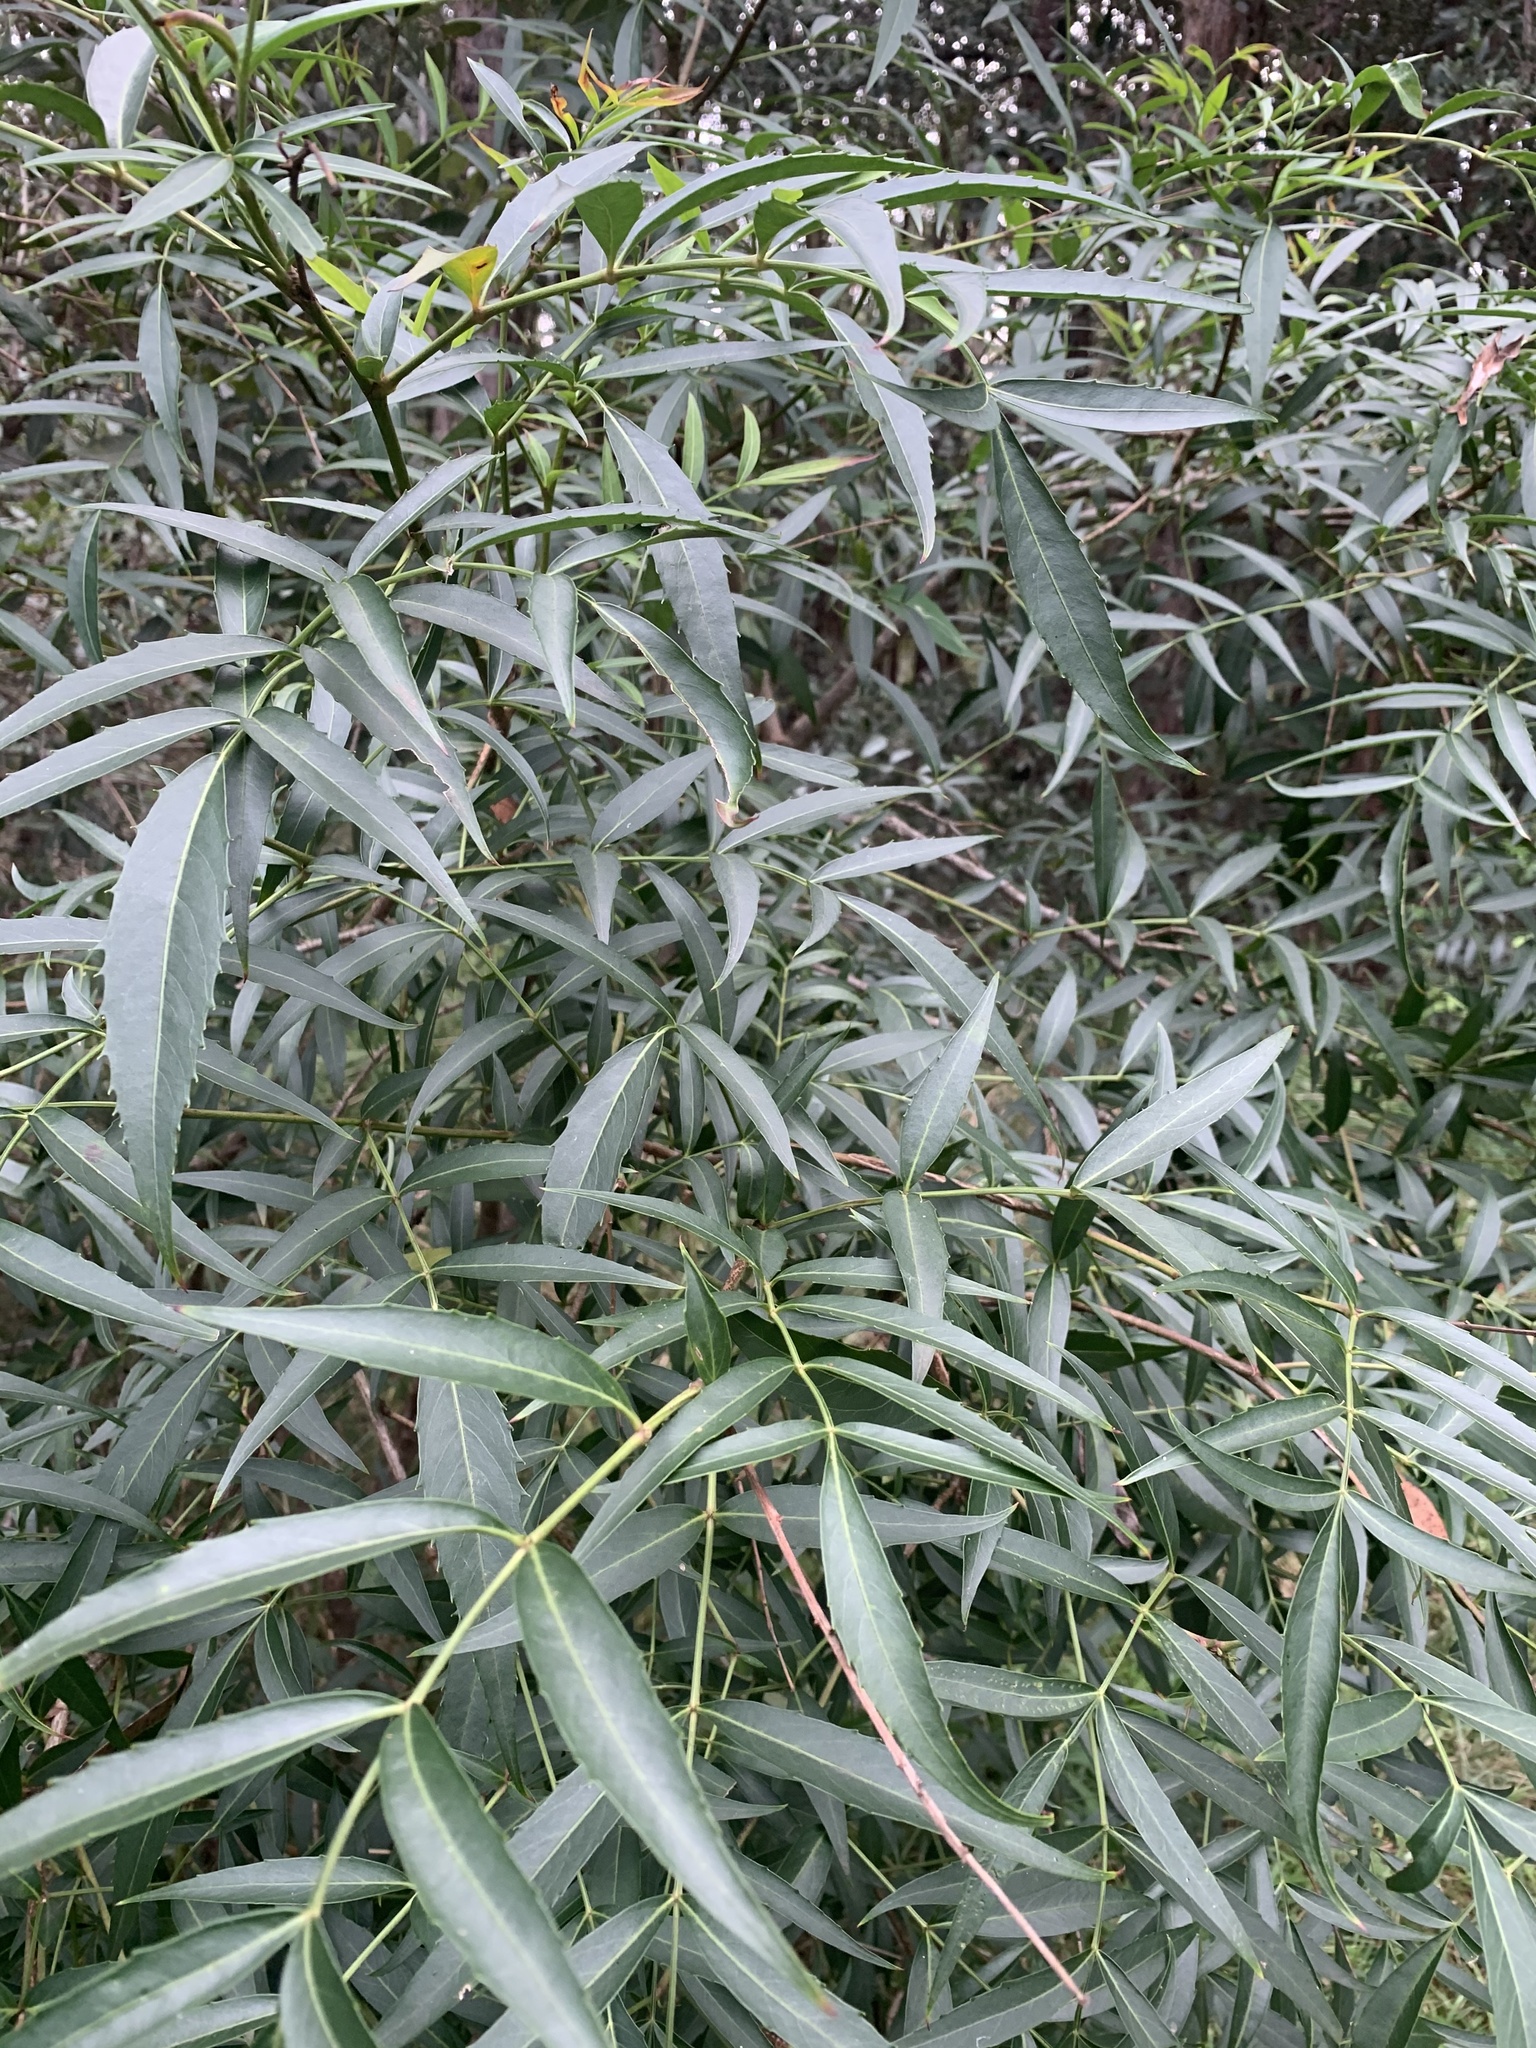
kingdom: Plantae
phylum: Tracheophyta
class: Magnoliopsida
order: Apiales
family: Araliaceae
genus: Polyscias
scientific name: Polyscias sambucifolia
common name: Elderberry-ash
